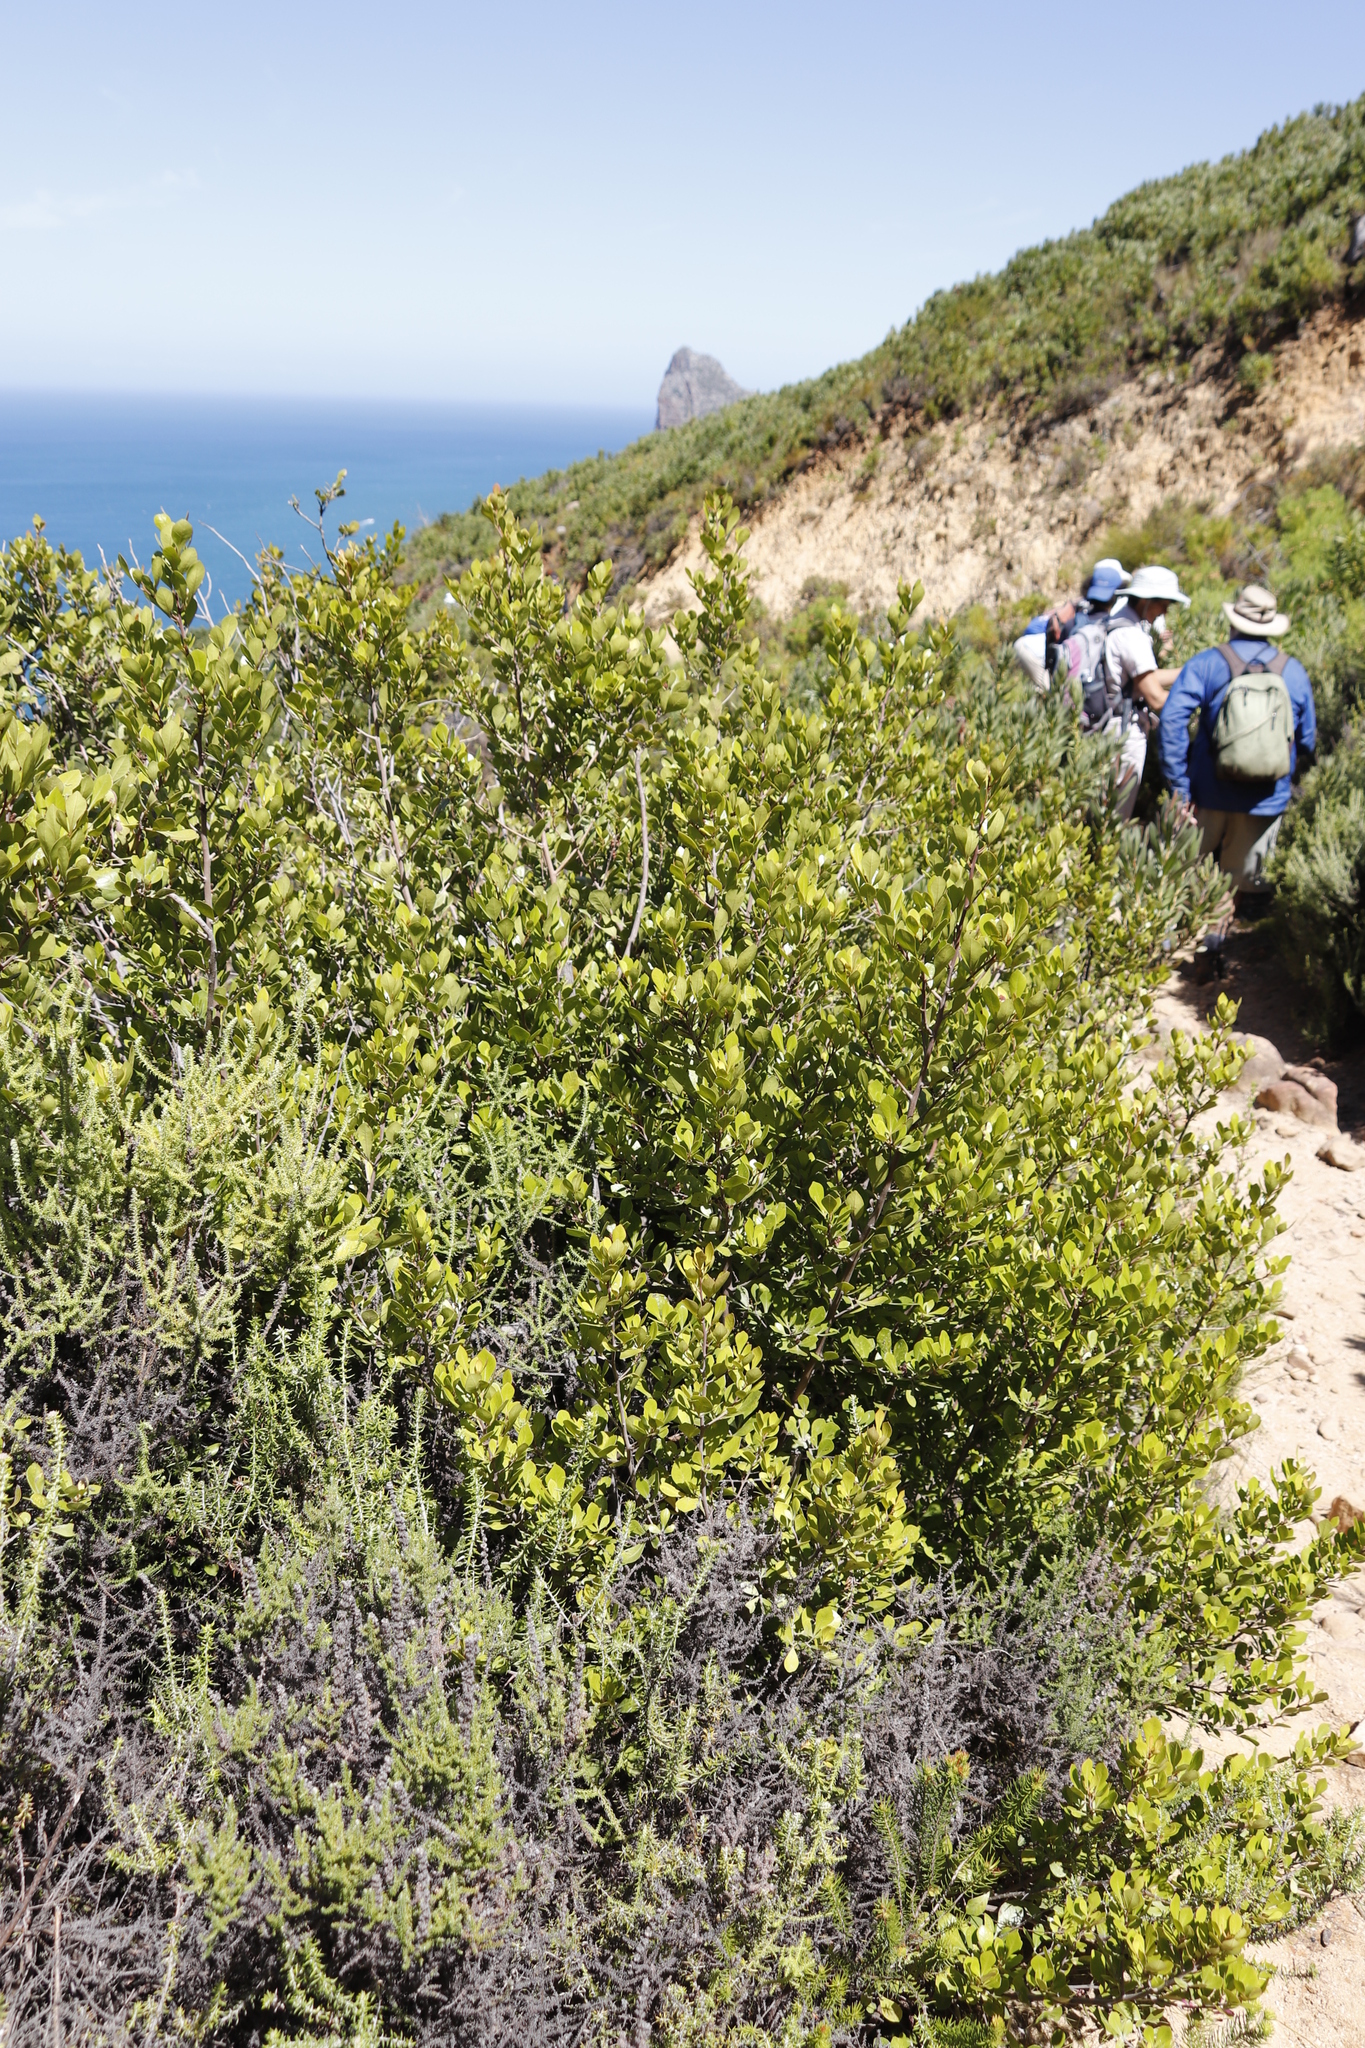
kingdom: Plantae
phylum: Tracheophyta
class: Magnoliopsida
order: Sapindales
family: Anacardiaceae
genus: Searsia
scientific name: Searsia lucida
